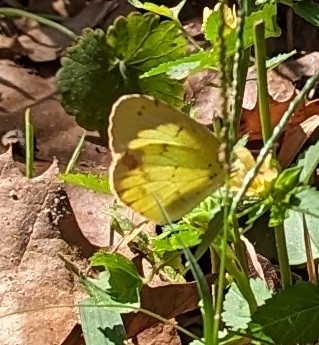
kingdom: Animalia
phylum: Arthropoda
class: Insecta
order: Lepidoptera
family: Pieridae
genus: Pyrisitia
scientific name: Pyrisitia lisa
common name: Little yellow
